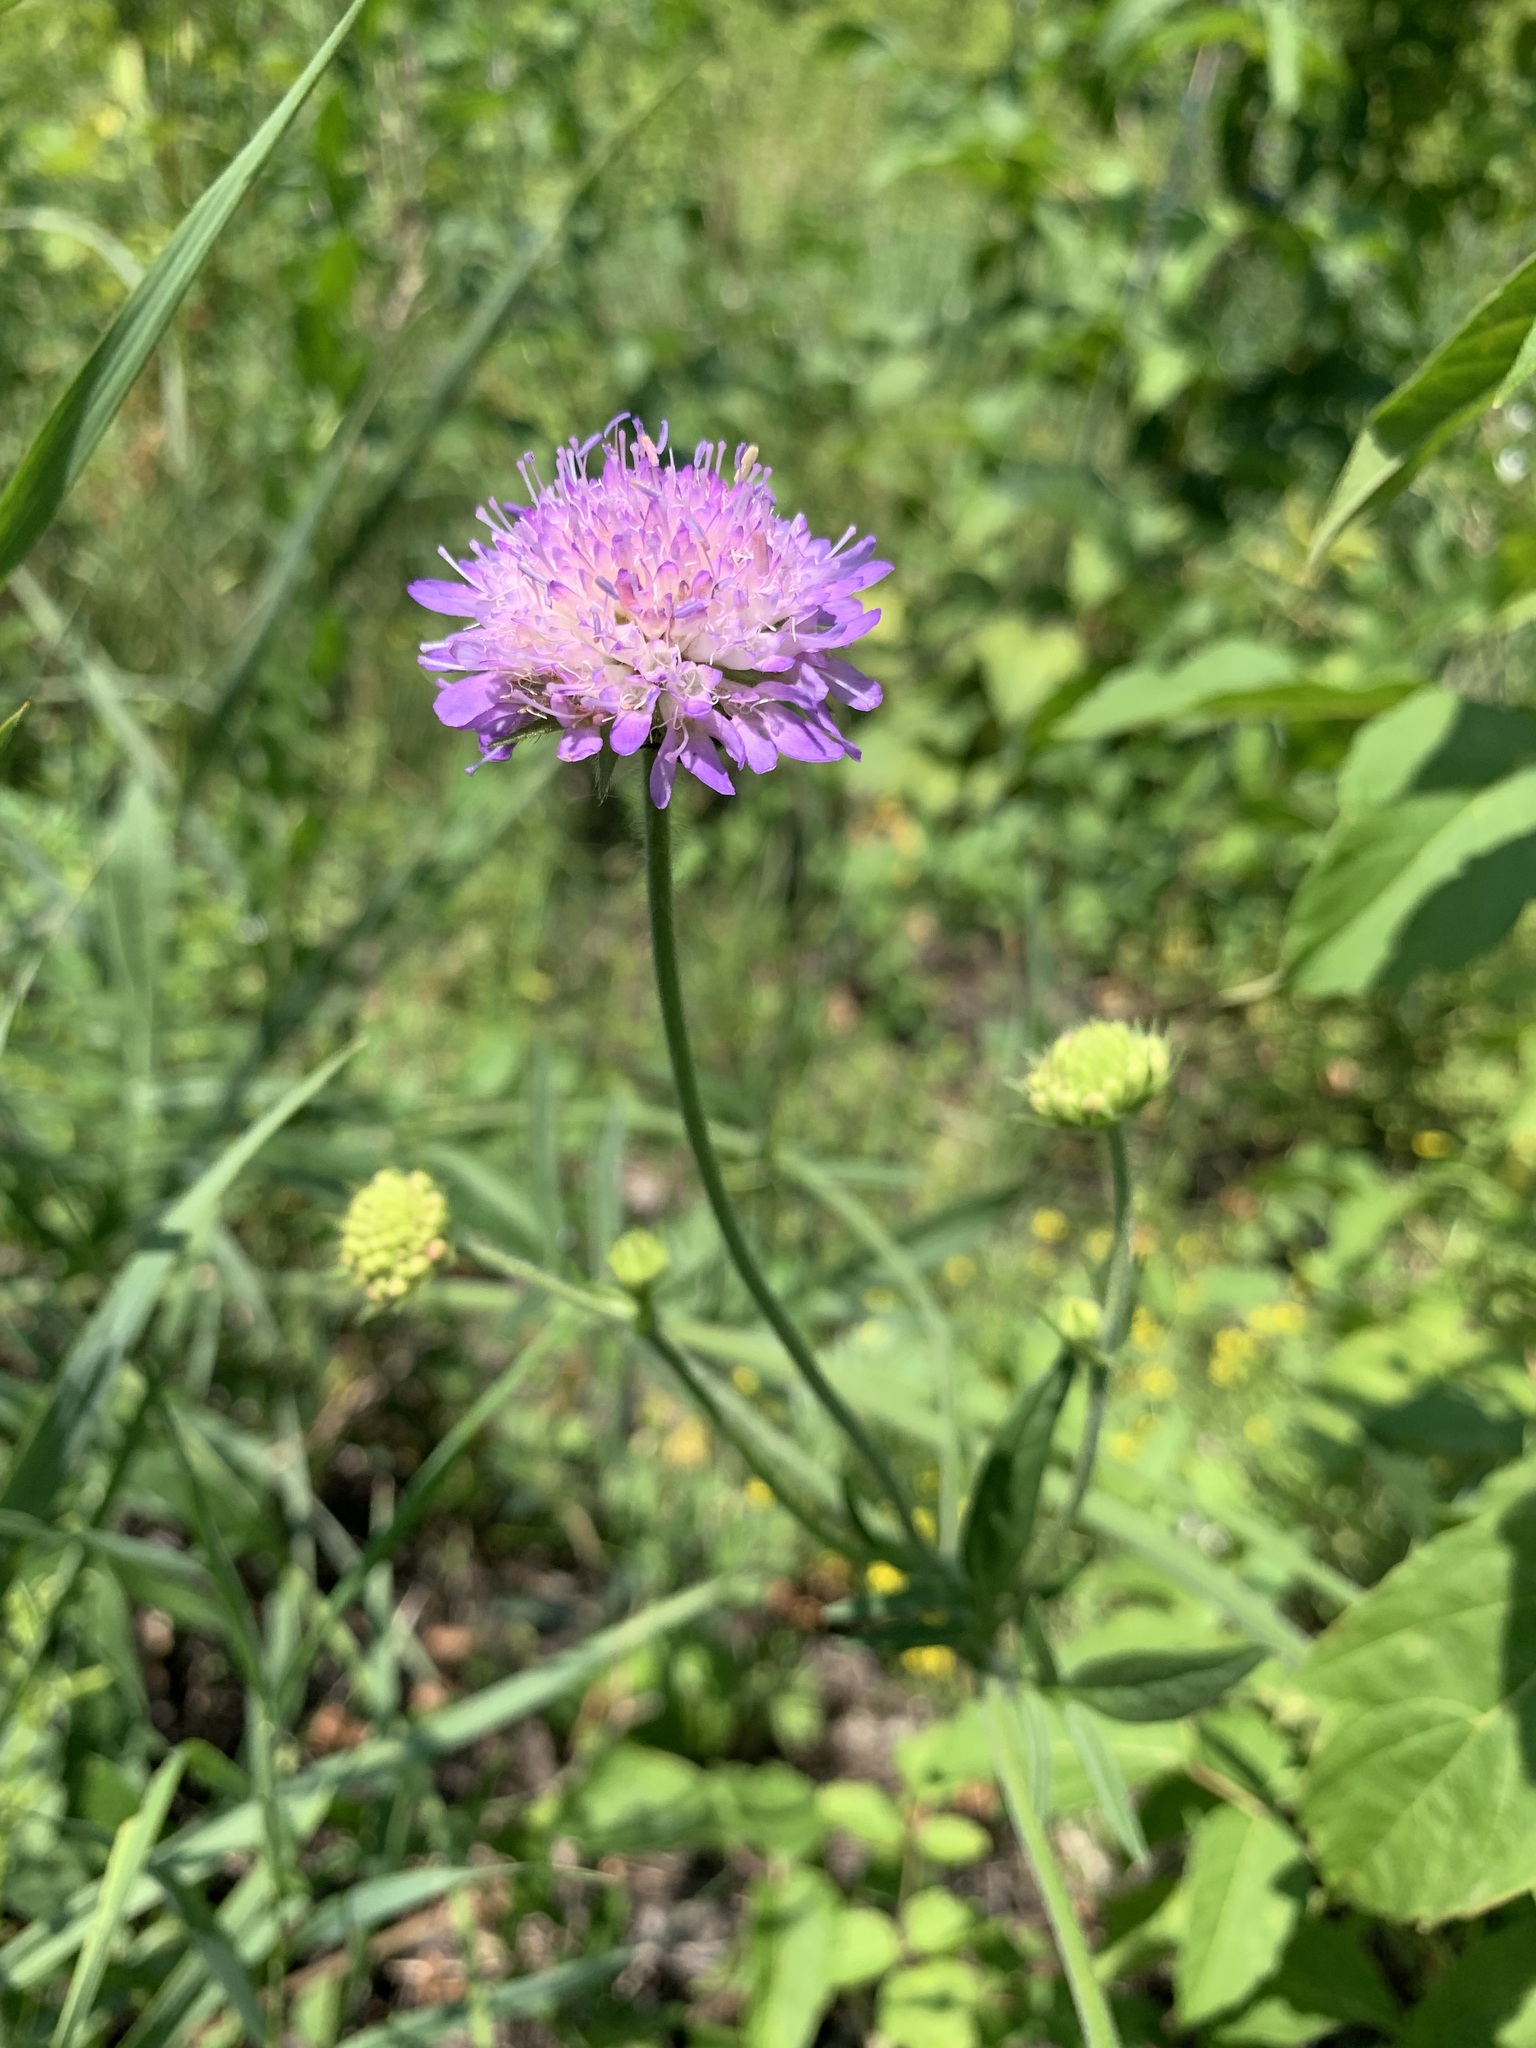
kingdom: Plantae
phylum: Tracheophyta
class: Magnoliopsida
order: Dipsacales
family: Caprifoliaceae
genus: Knautia
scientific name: Knautia arvensis
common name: Field scabiosa
